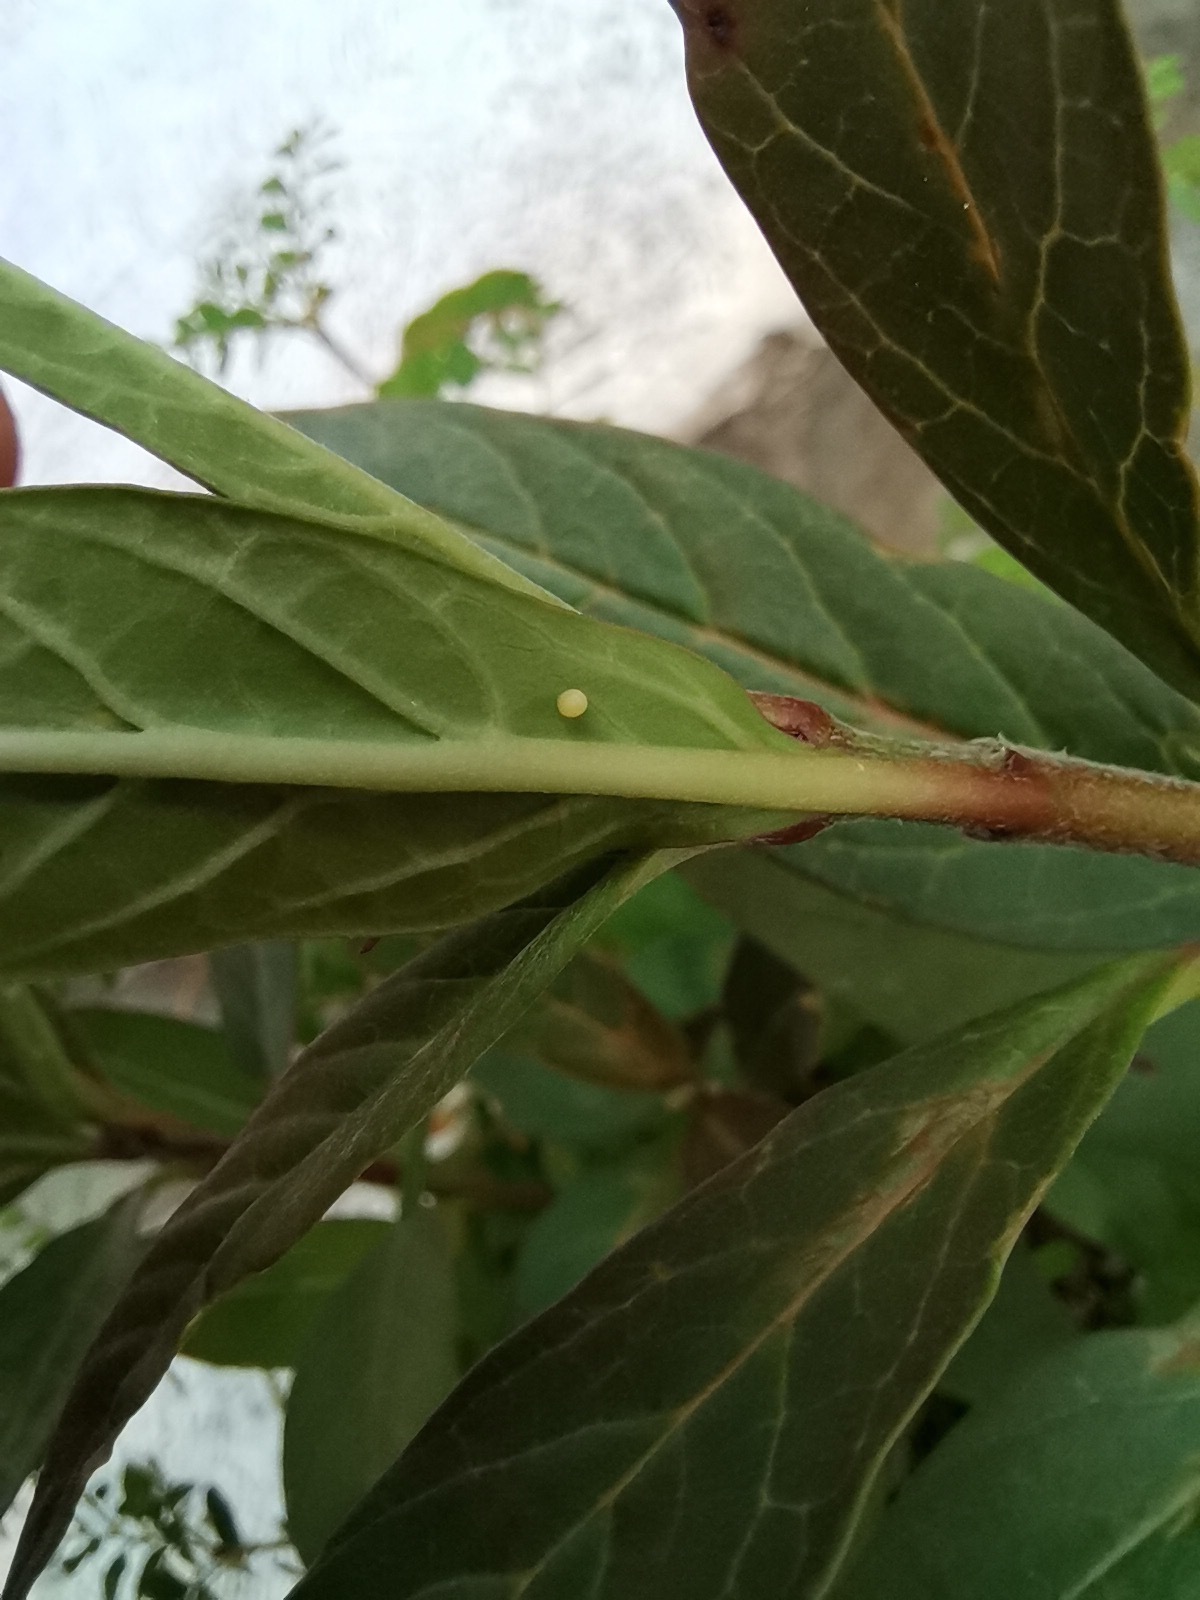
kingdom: Animalia
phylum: Arthropoda
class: Insecta
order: Lepidoptera
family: Nymphalidae
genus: Danaus
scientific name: Danaus plexippus
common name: Monarch
